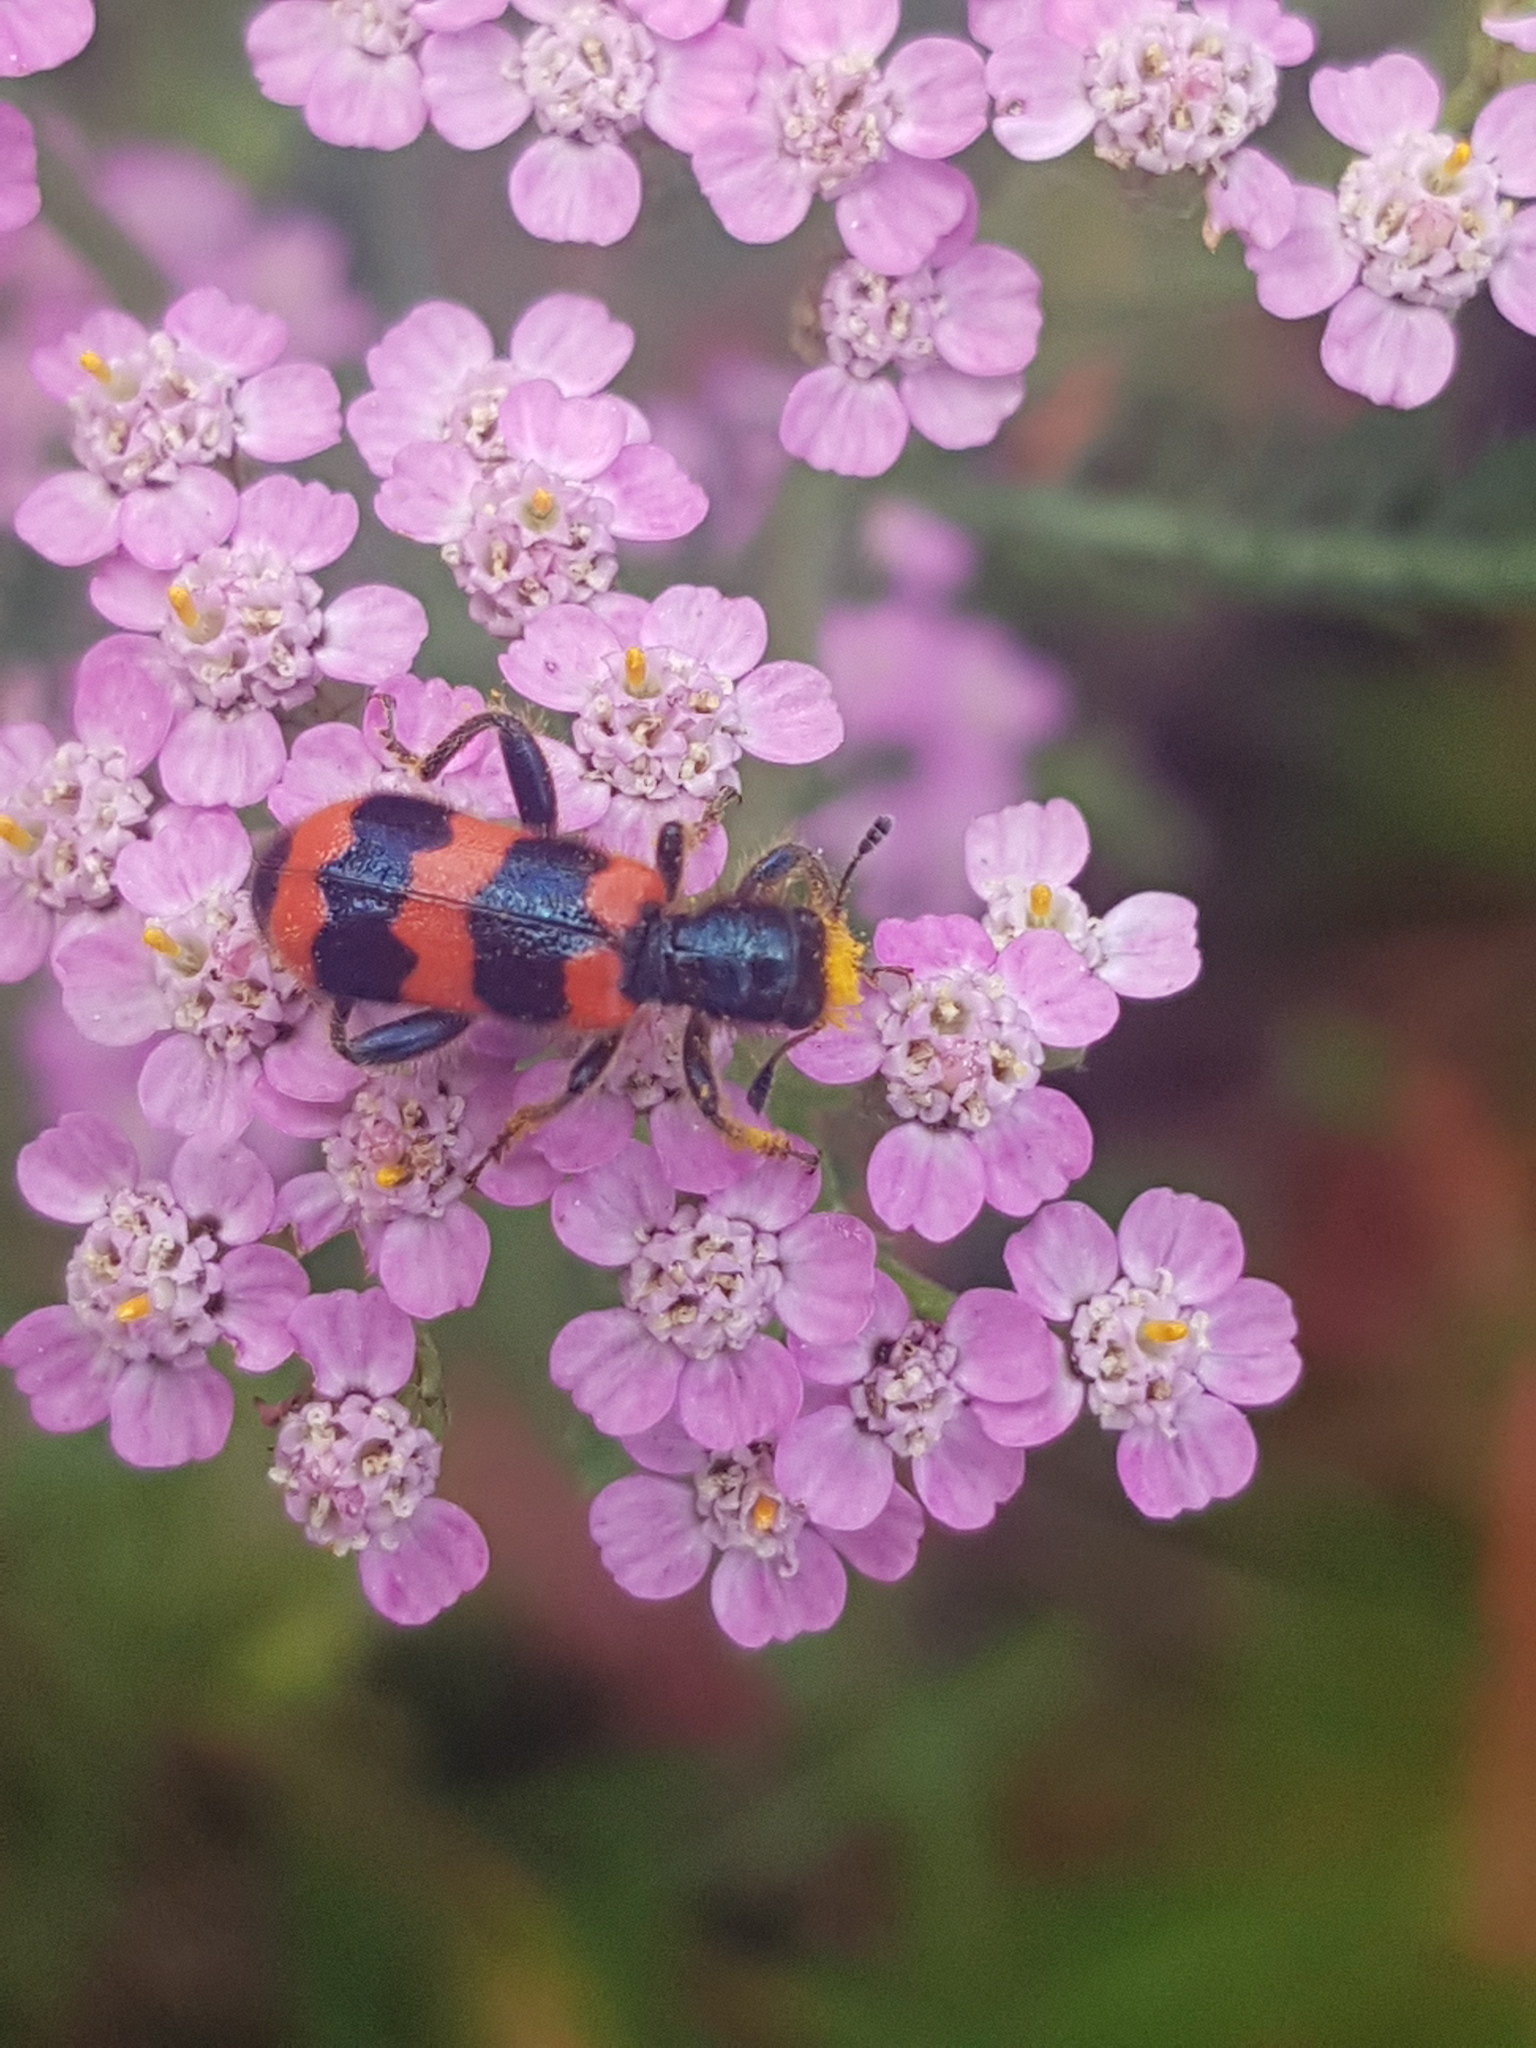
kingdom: Animalia
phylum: Arthropoda
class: Insecta
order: Coleoptera
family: Cleridae
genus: Trichodes
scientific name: Trichodes apiarius
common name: Bee-eating beetle
